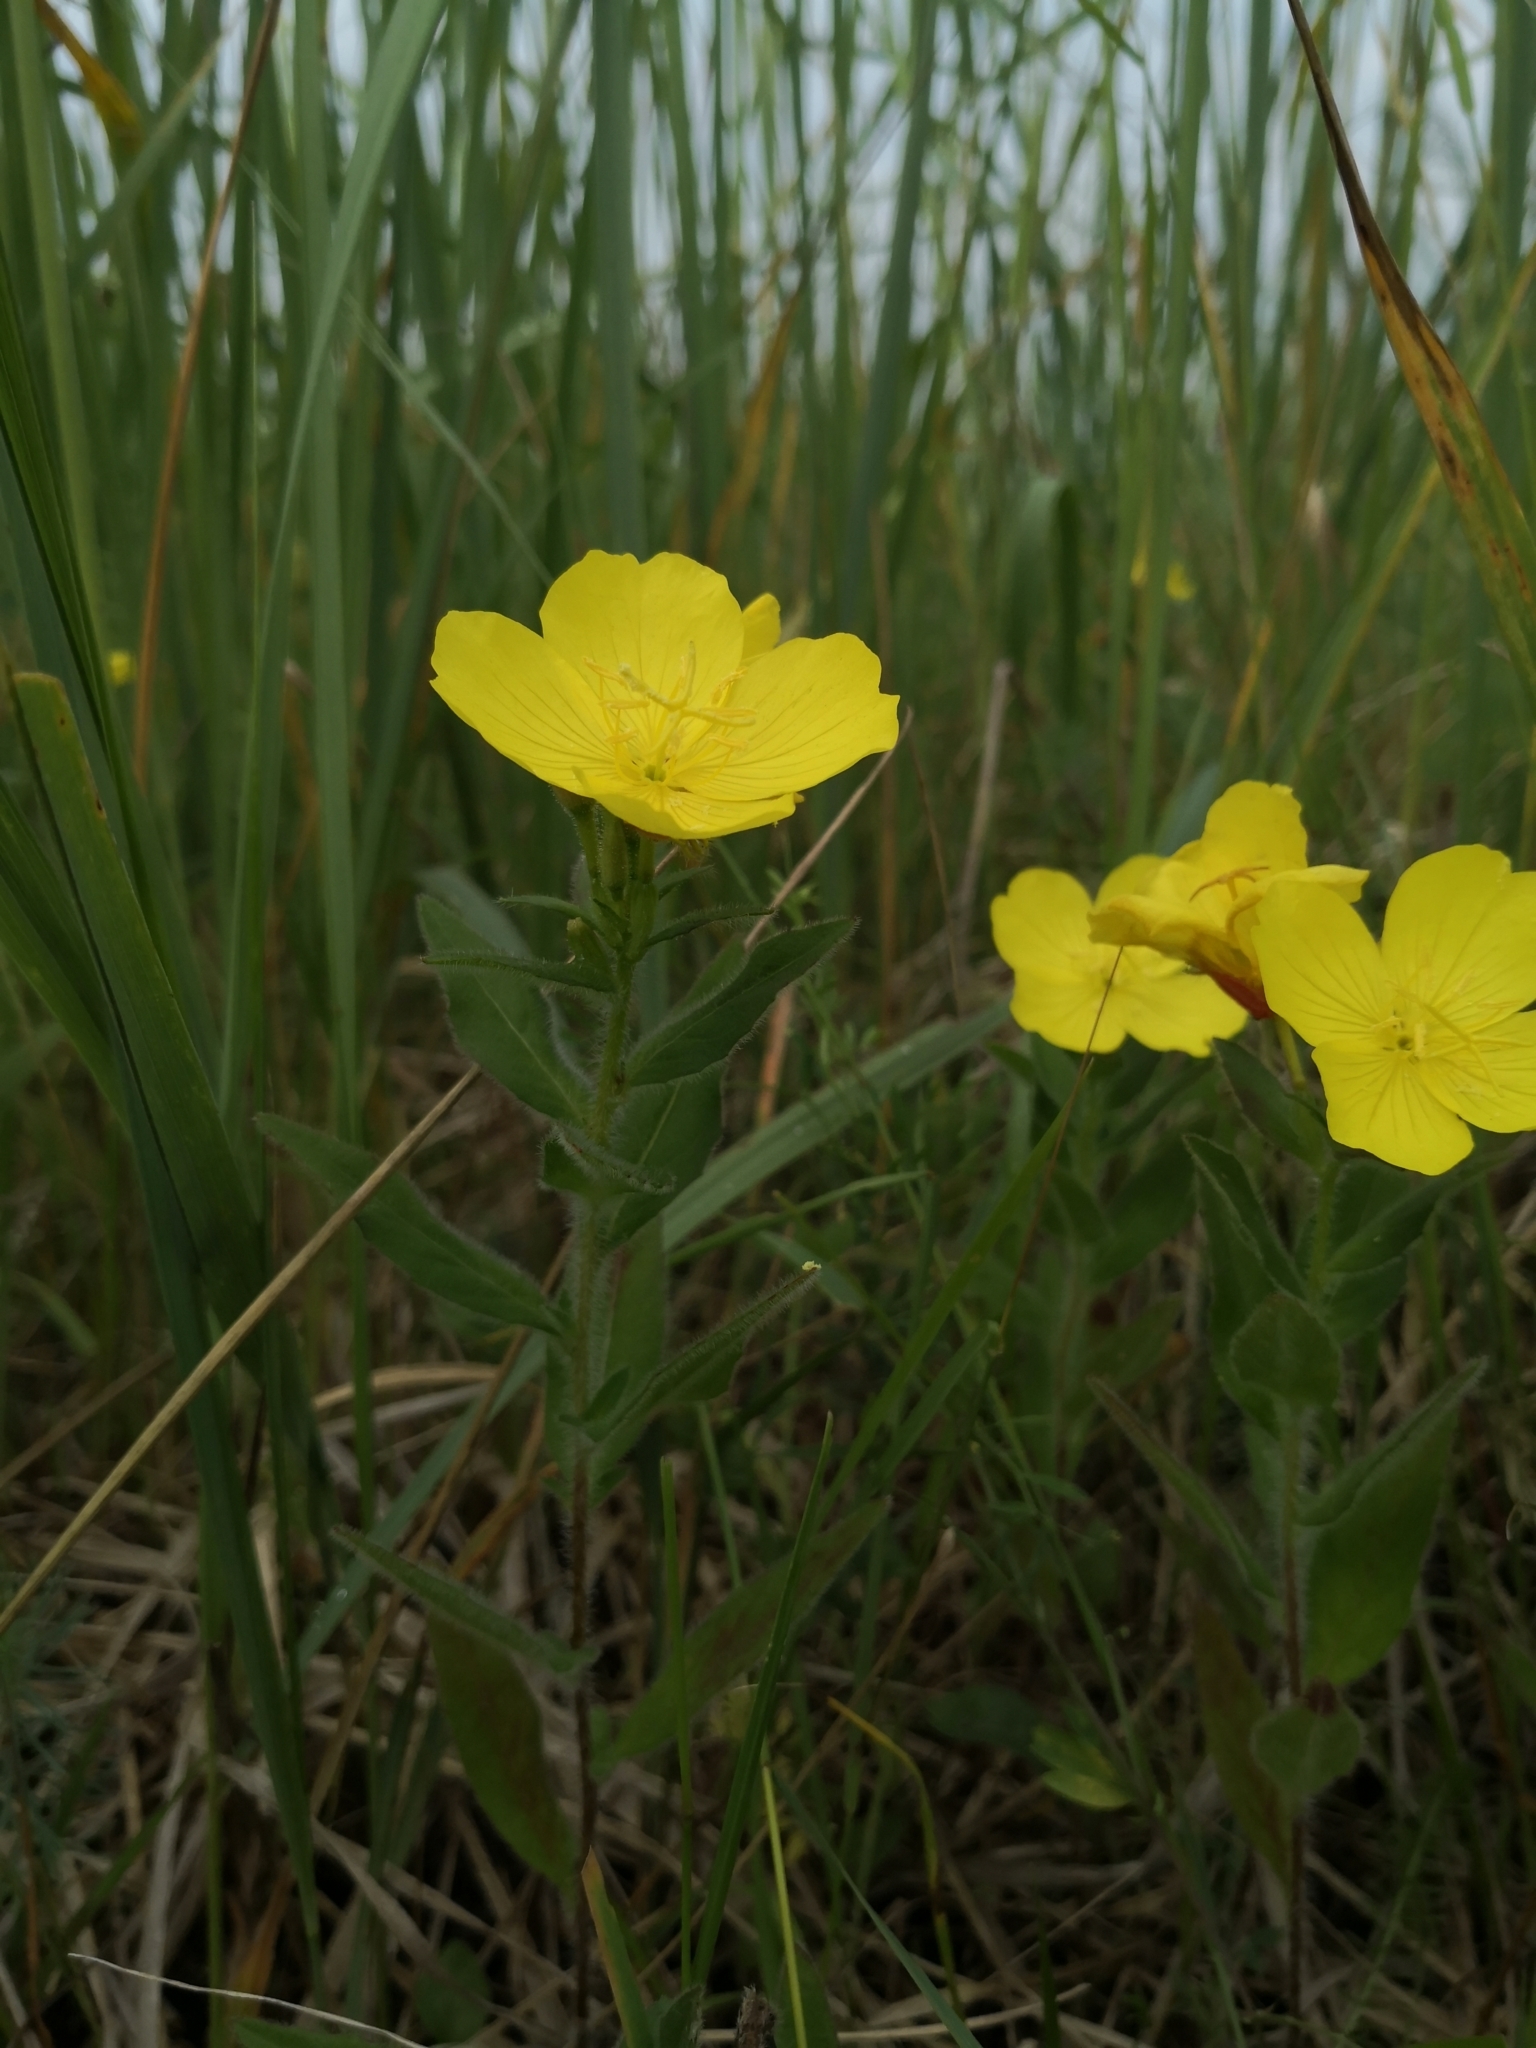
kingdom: Plantae
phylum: Tracheophyta
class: Magnoliopsida
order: Myrtales
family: Onagraceae
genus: Oenothera
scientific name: Oenothera pilosella
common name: Finely-pilose evening-primrose
